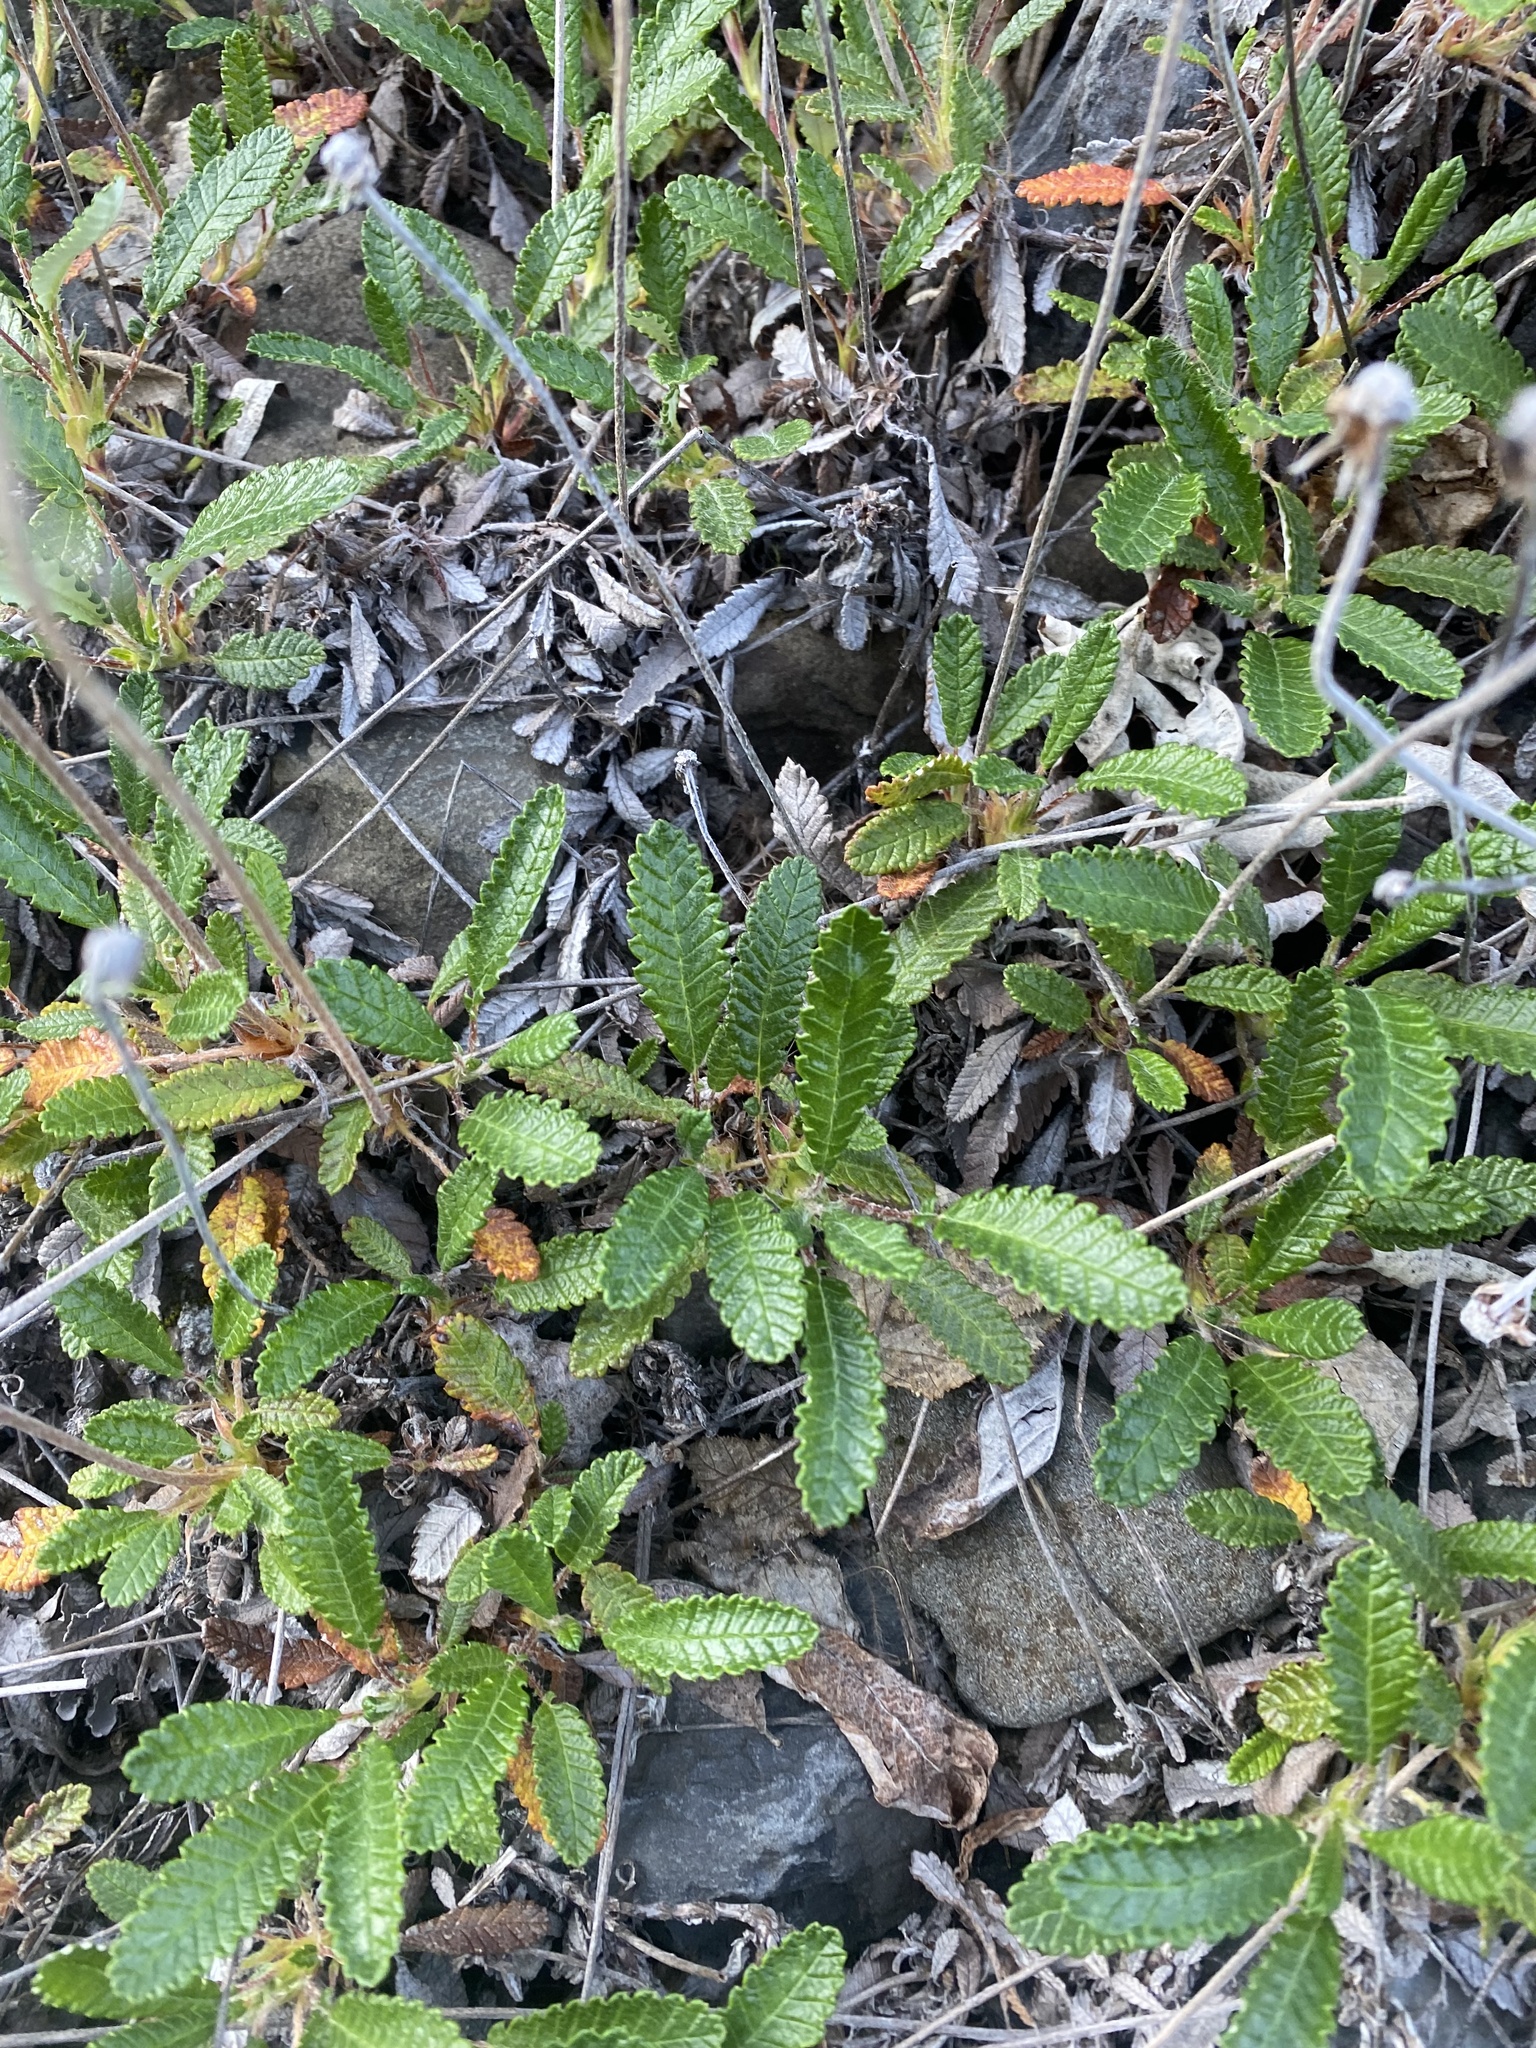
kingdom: Plantae
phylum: Tracheophyta
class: Magnoliopsida
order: Rosales
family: Rosaceae
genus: Dryas
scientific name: Dryas grandis
